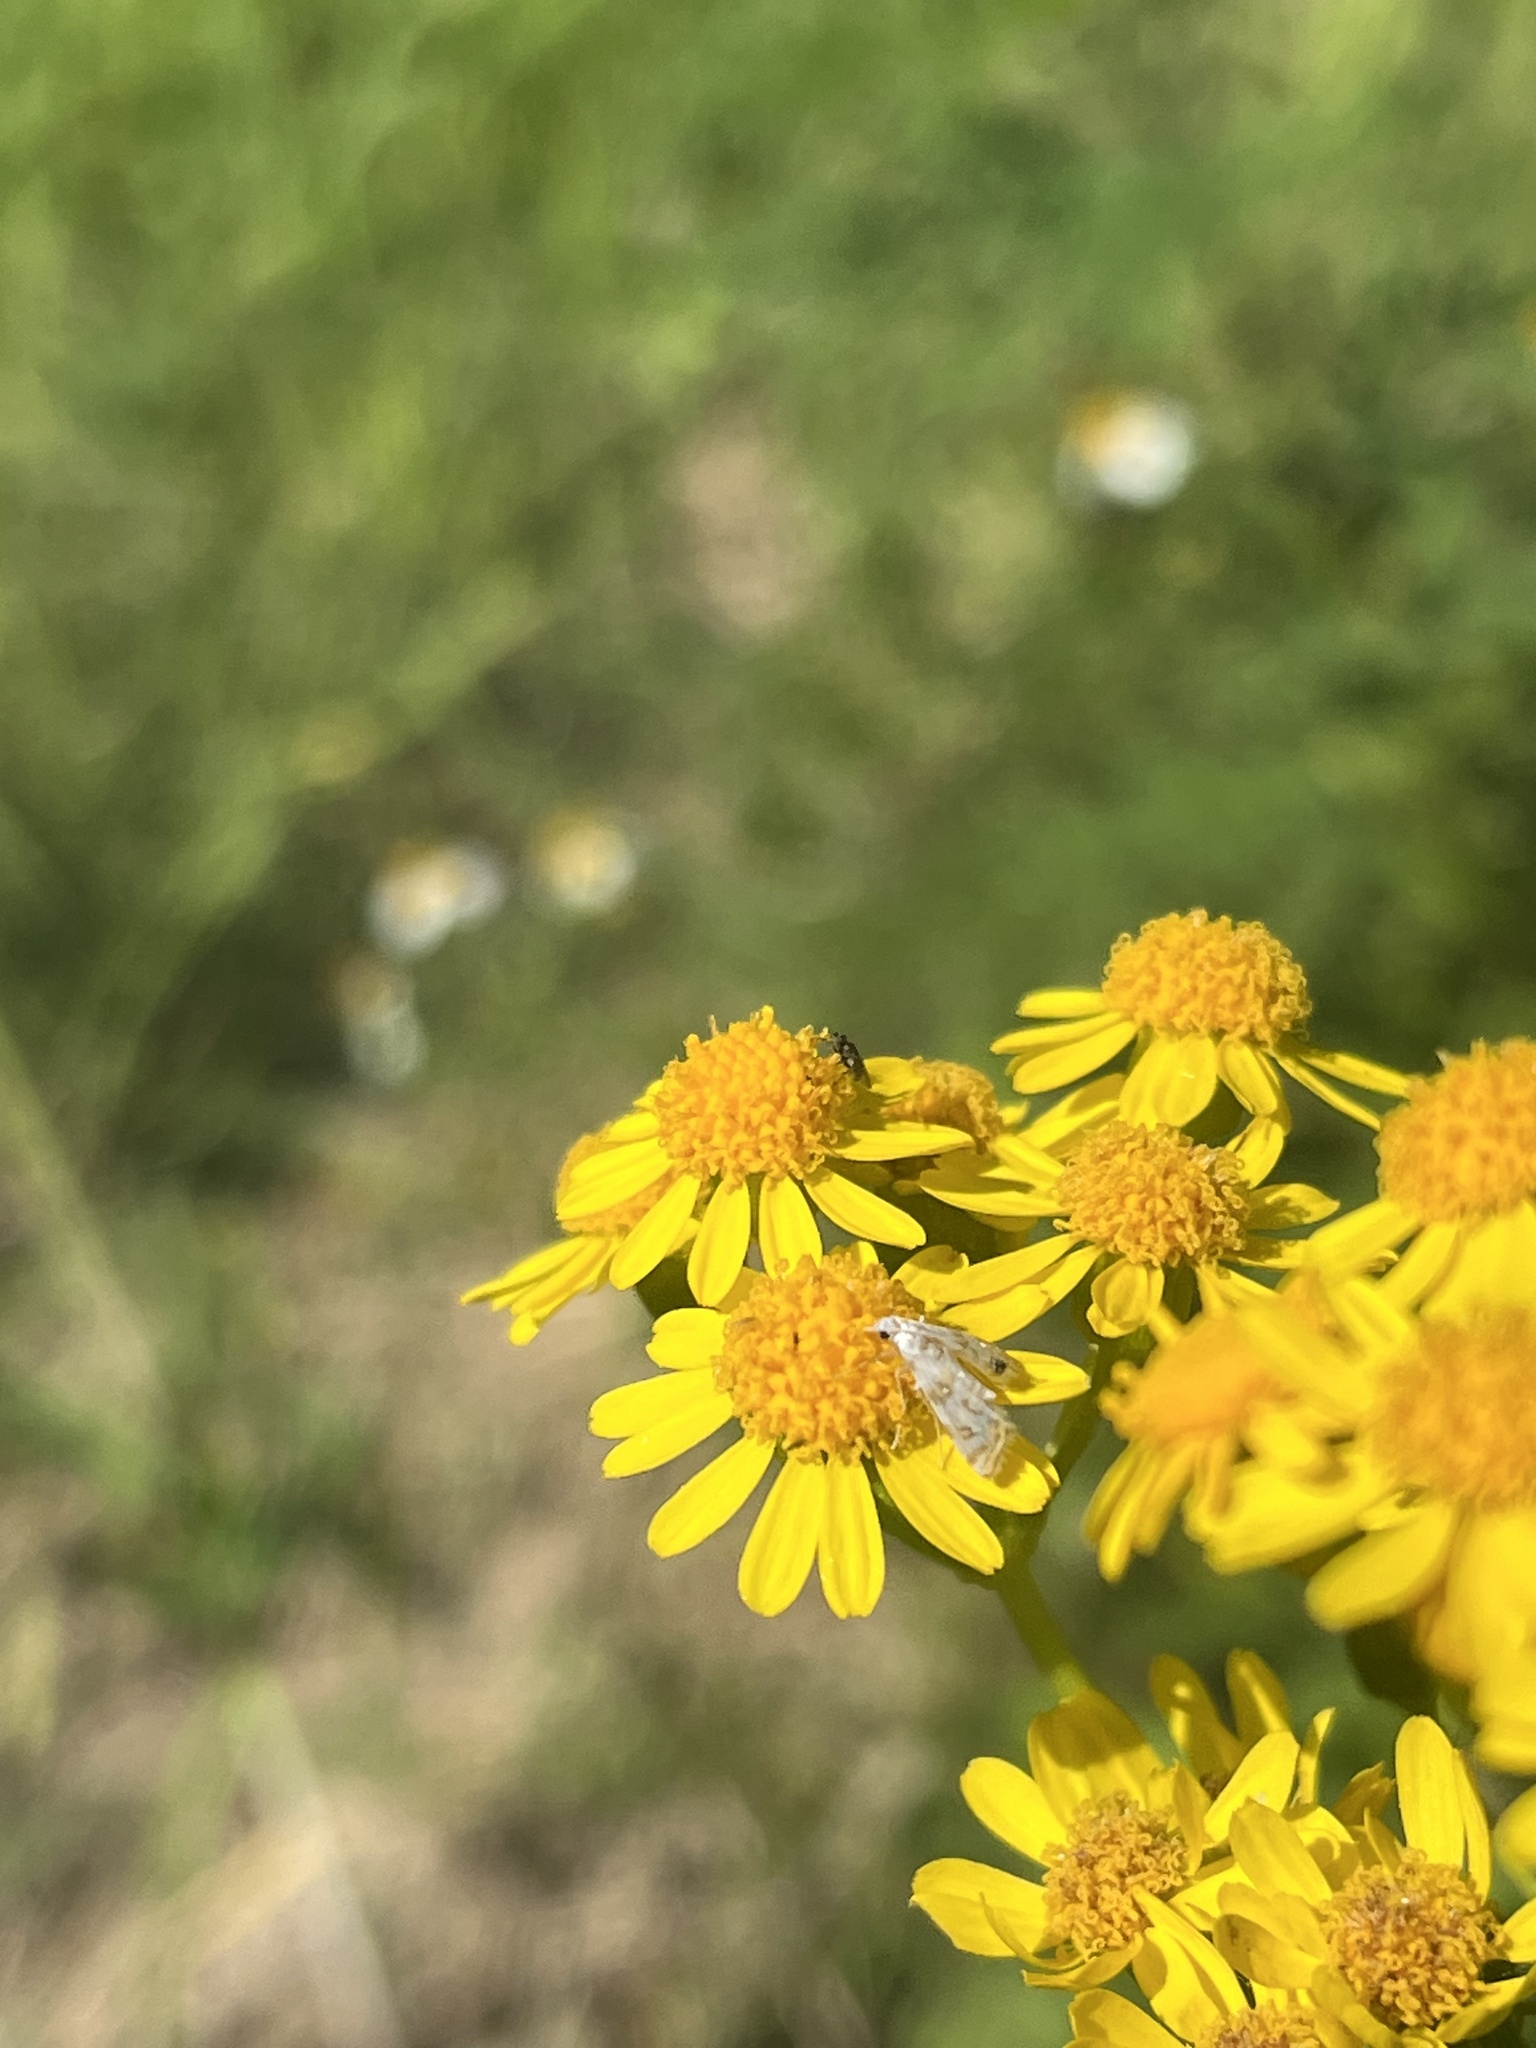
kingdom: Plantae
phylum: Tracheophyta
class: Magnoliopsida
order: Asterales
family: Asteraceae
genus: Packera
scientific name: Packera glabella
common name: Butterweed
